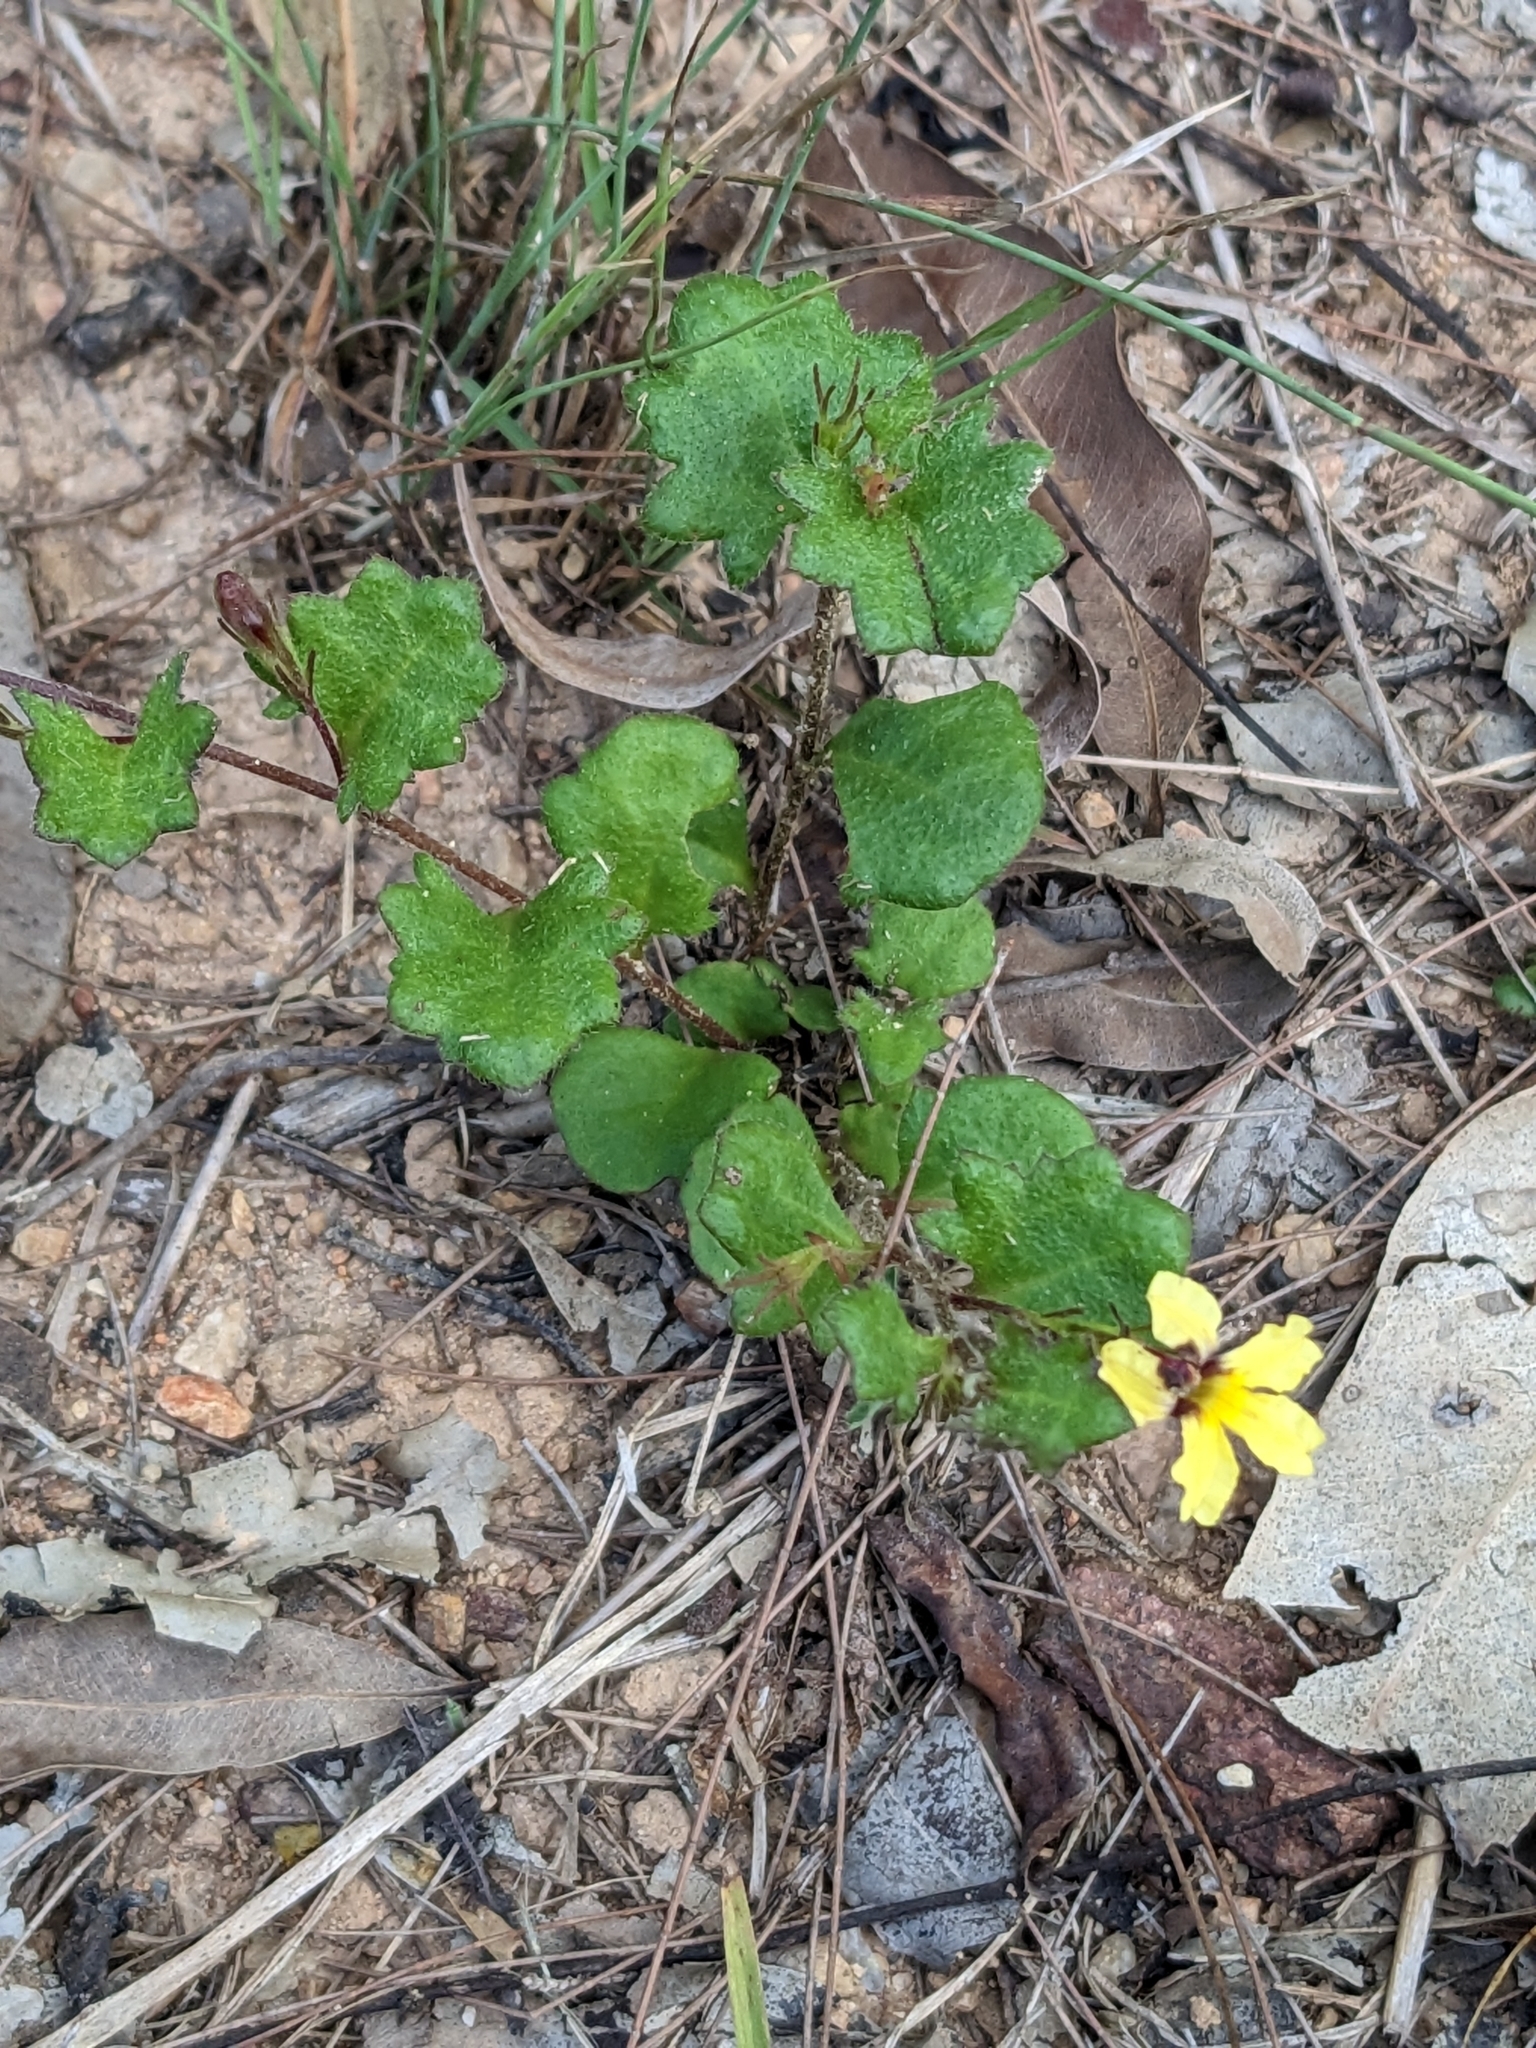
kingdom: Plantae
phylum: Tracheophyta
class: Magnoliopsida
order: Asterales
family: Goodeniaceae
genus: Goodenia
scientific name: Goodenia rotundifolia
